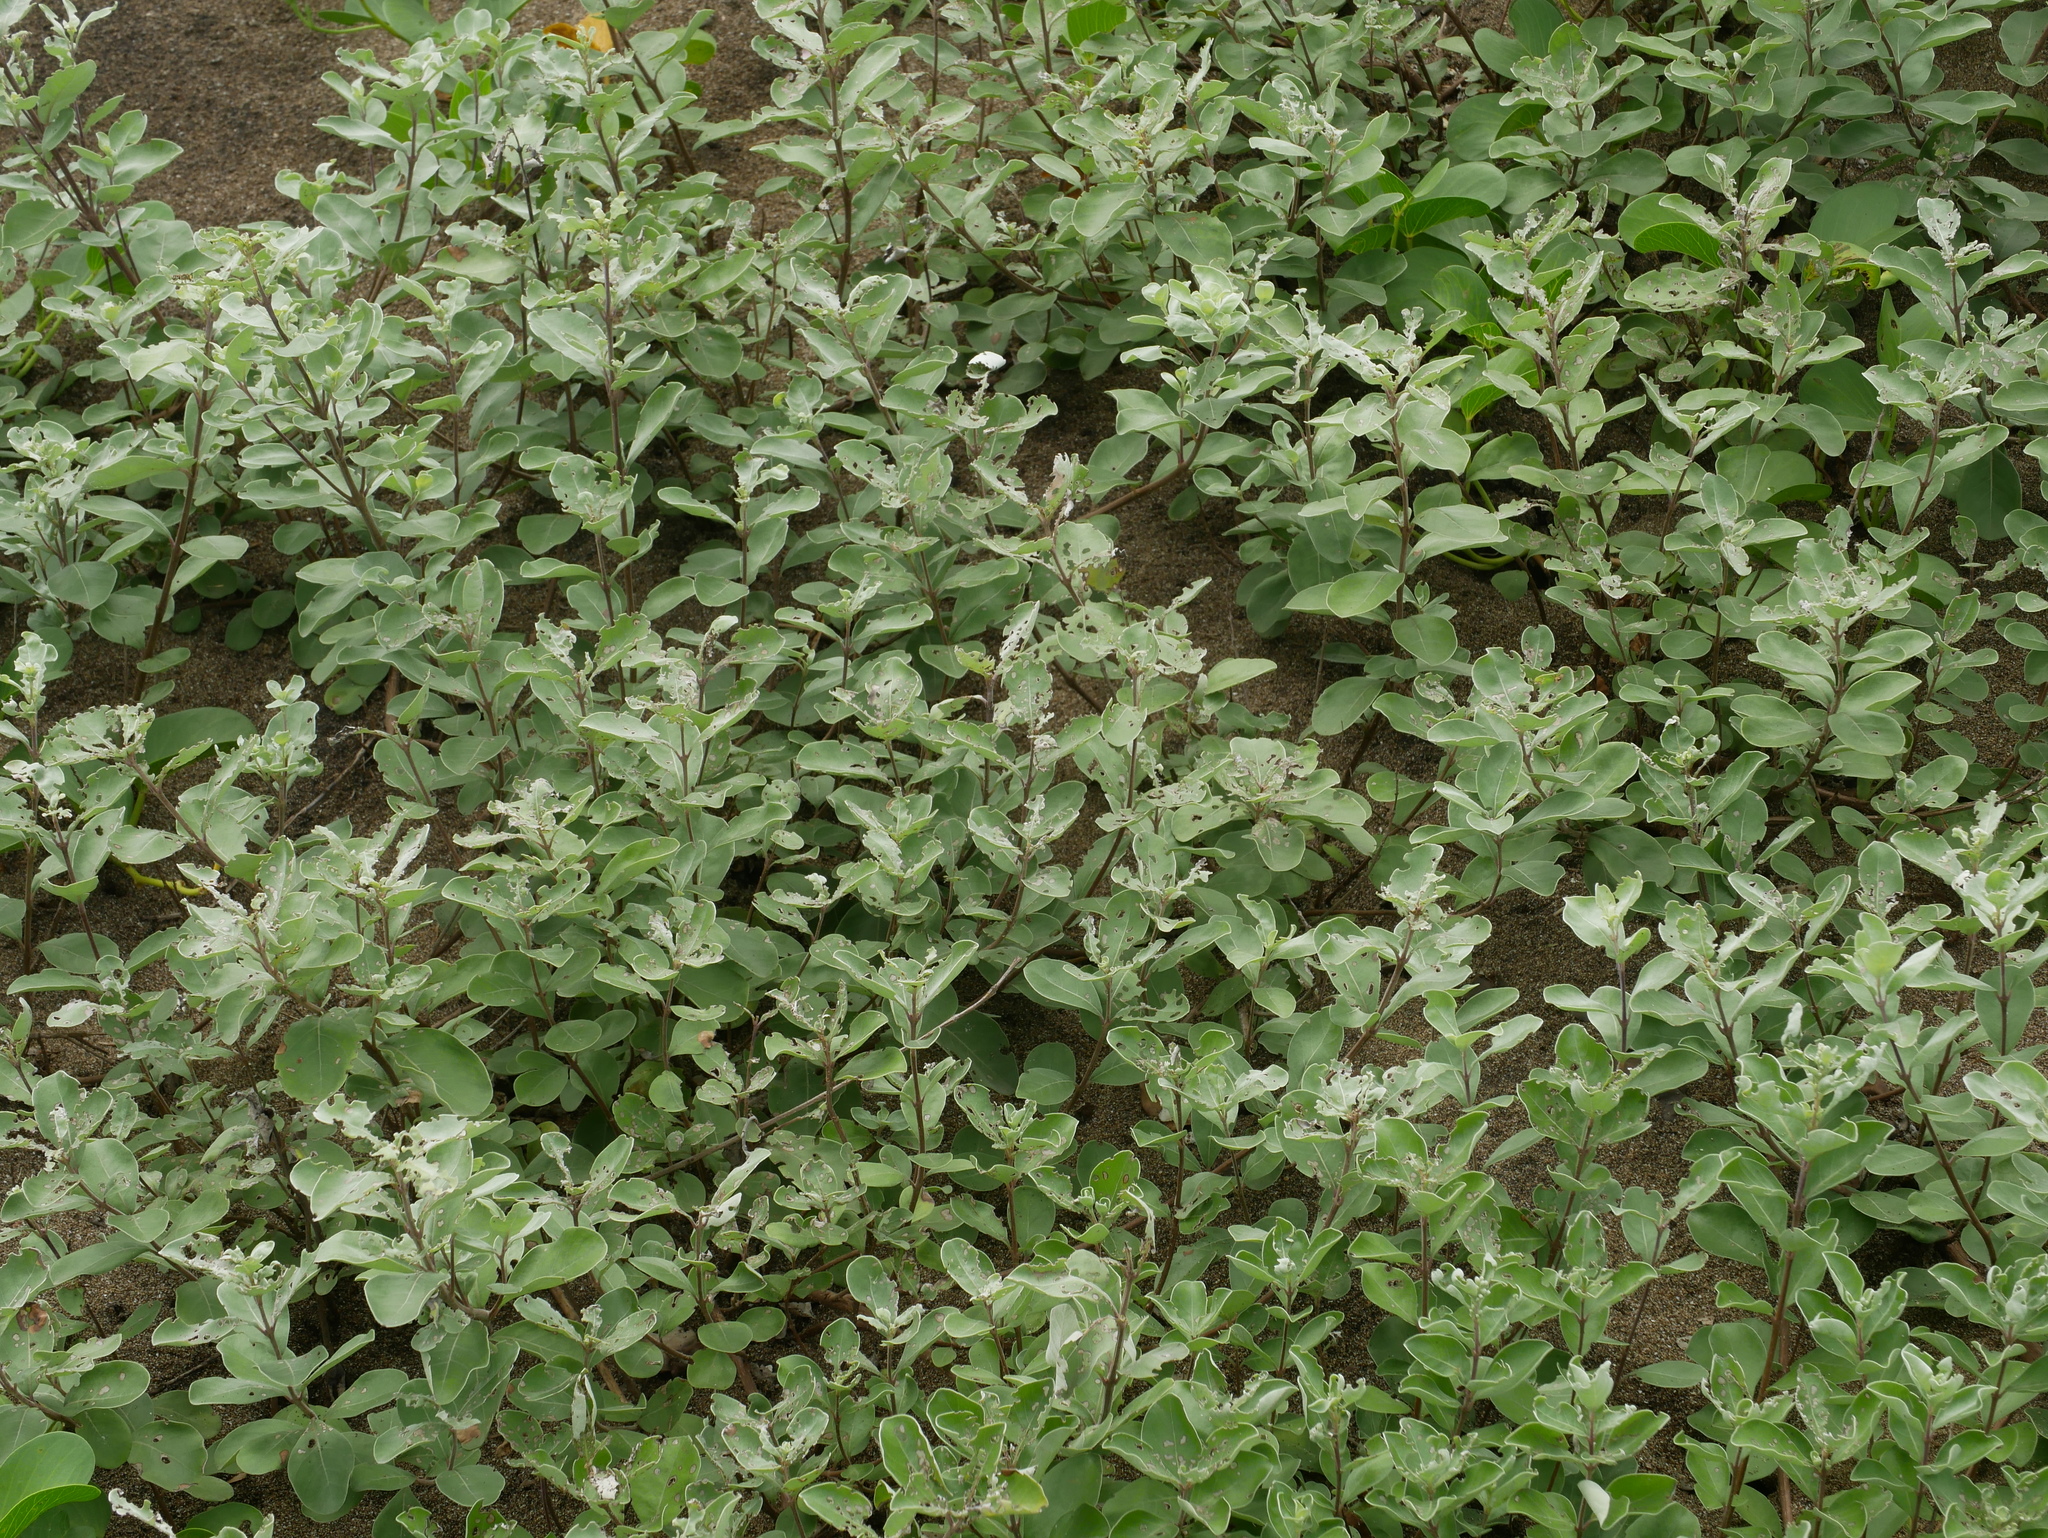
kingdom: Plantae
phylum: Tracheophyta
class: Magnoliopsida
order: Lamiales
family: Lamiaceae
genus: Vitex
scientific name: Vitex rotundifolia
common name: Beach vitex
